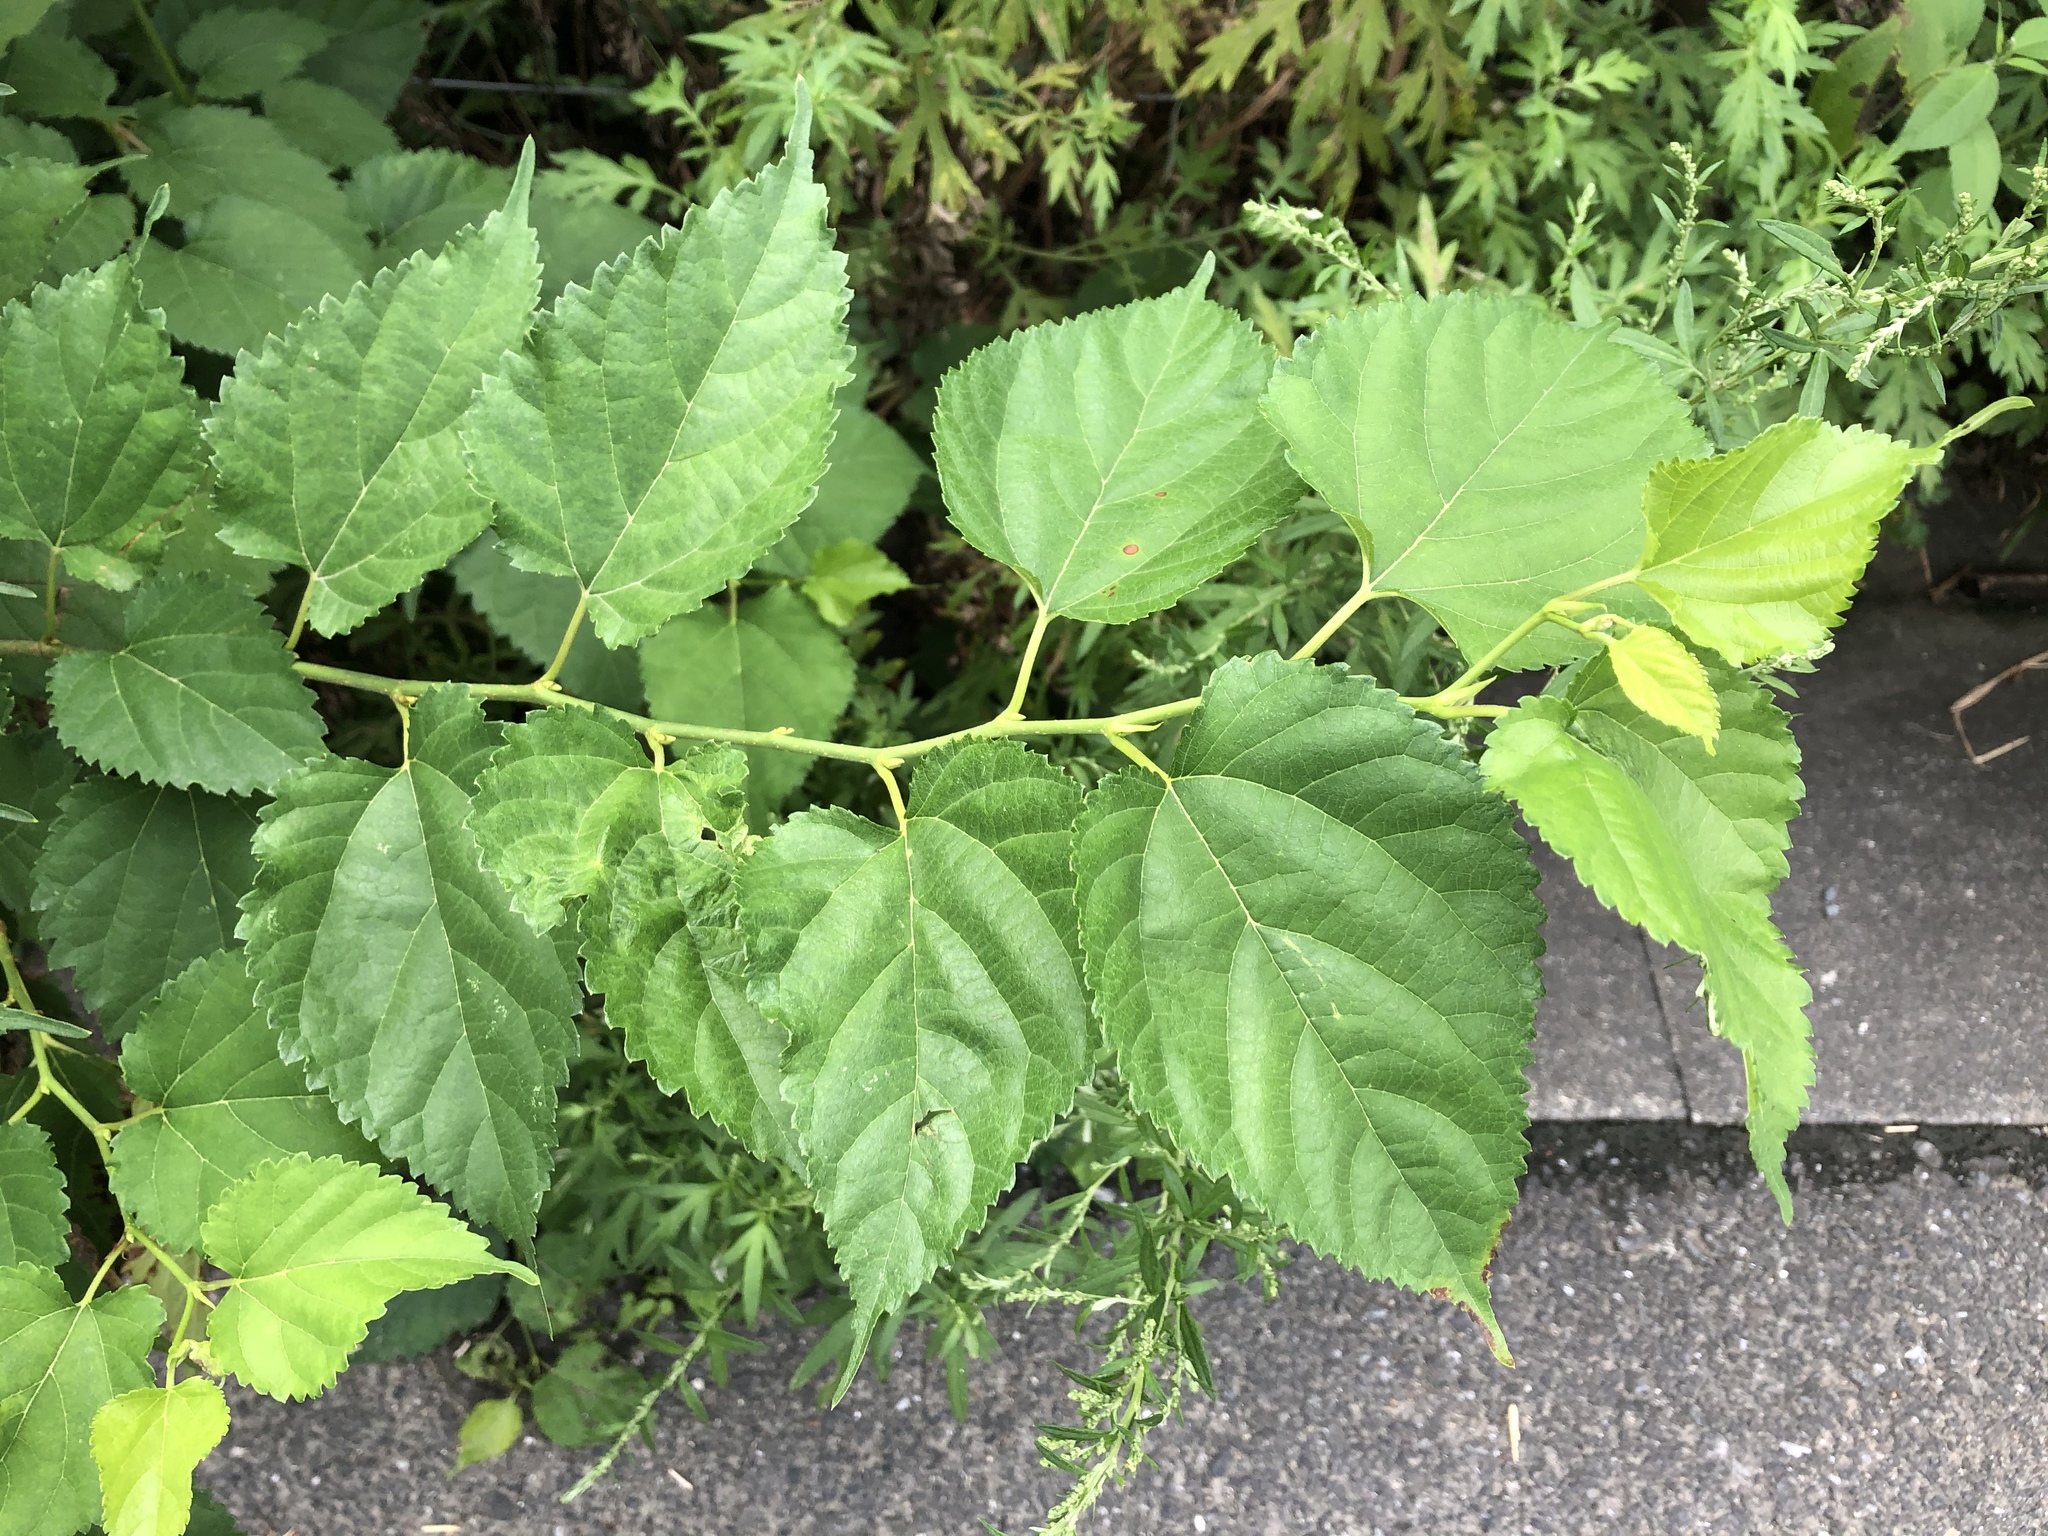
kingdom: Plantae
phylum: Tracheophyta
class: Magnoliopsida
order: Rosales
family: Moraceae
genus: Morus
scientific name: Morus indica
